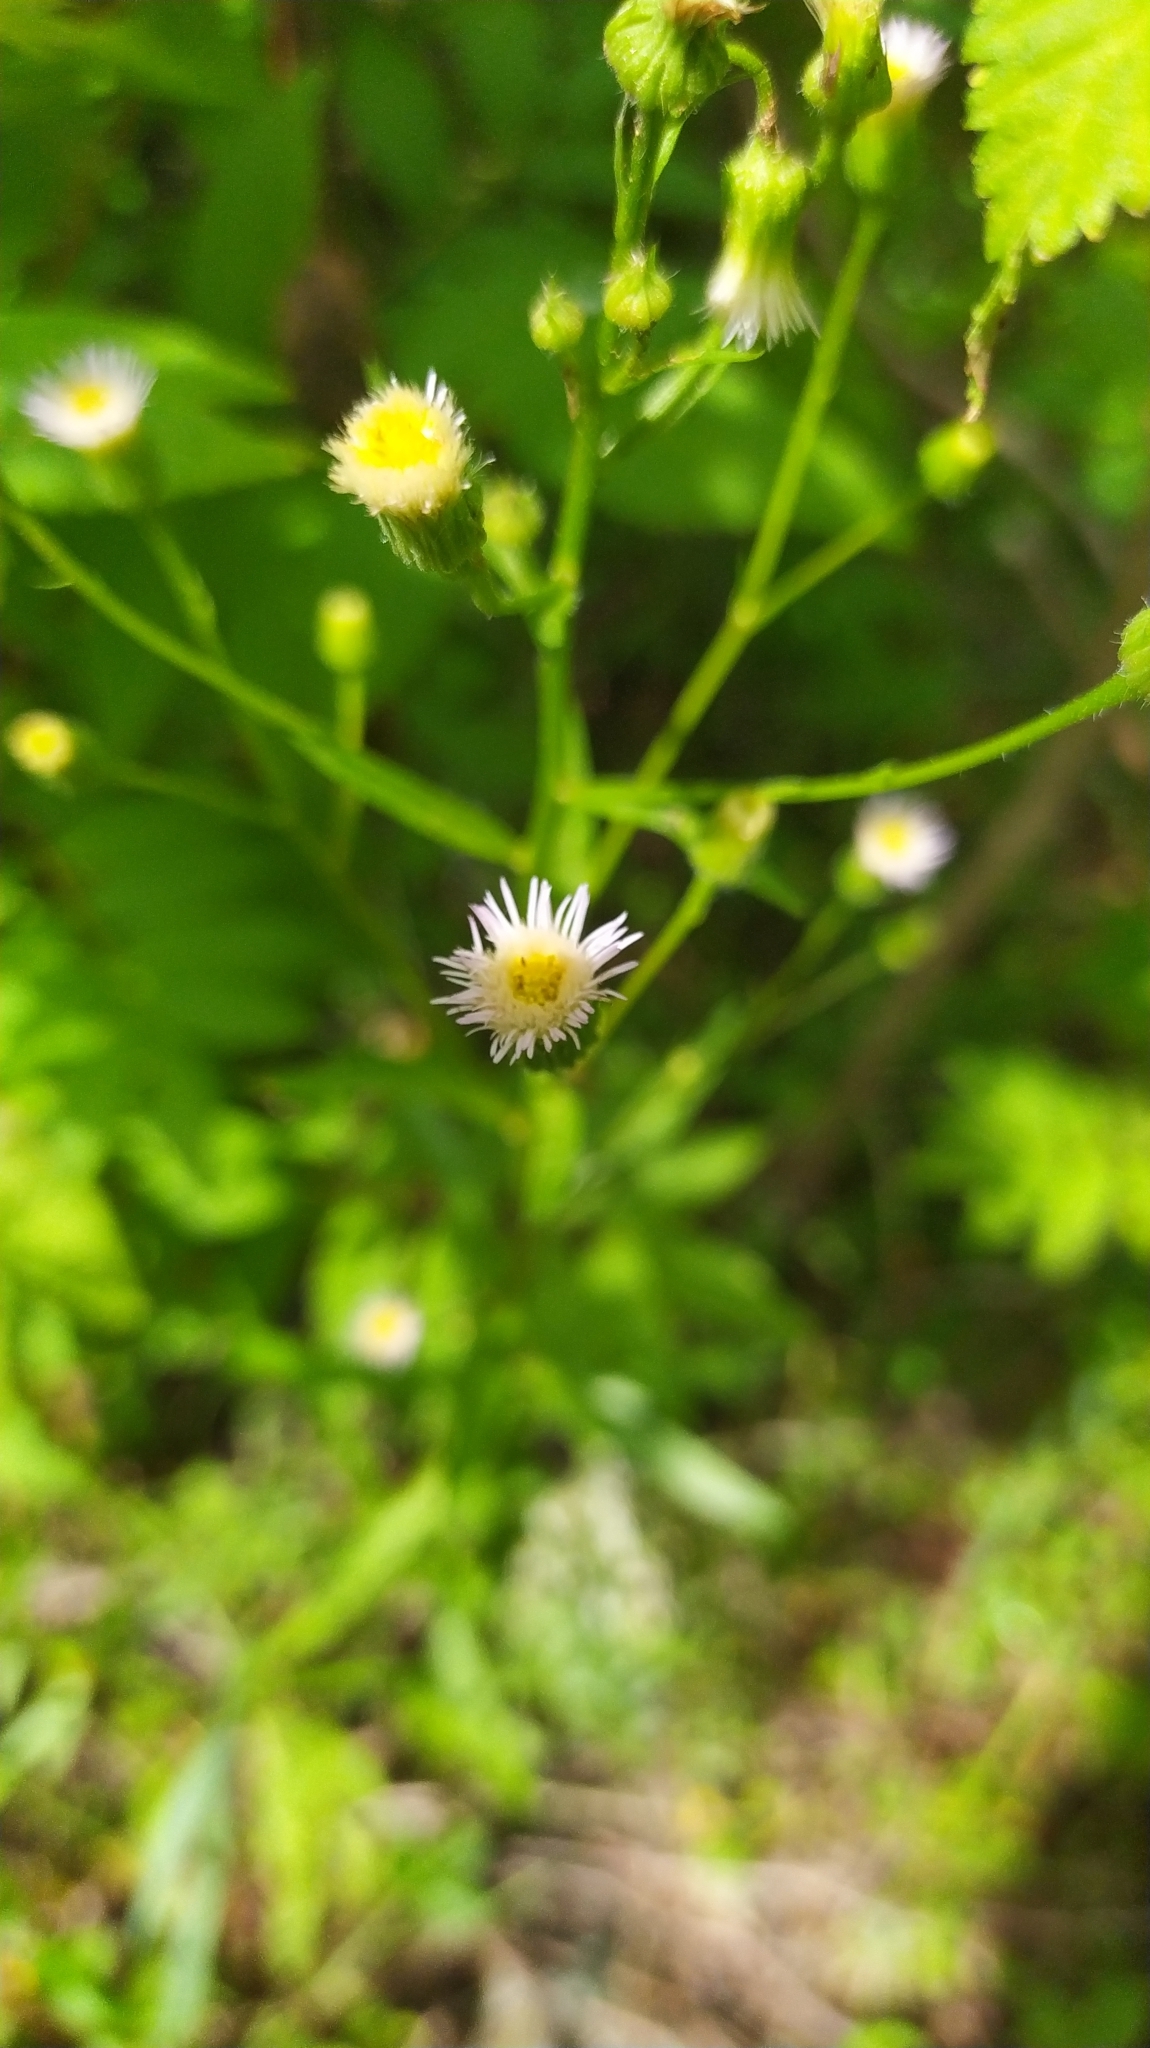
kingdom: Plantae
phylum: Tracheophyta
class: Magnoliopsida
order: Asterales
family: Asteraceae
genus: Erigeron
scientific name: Erigeron acris
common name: Blue fleabane
